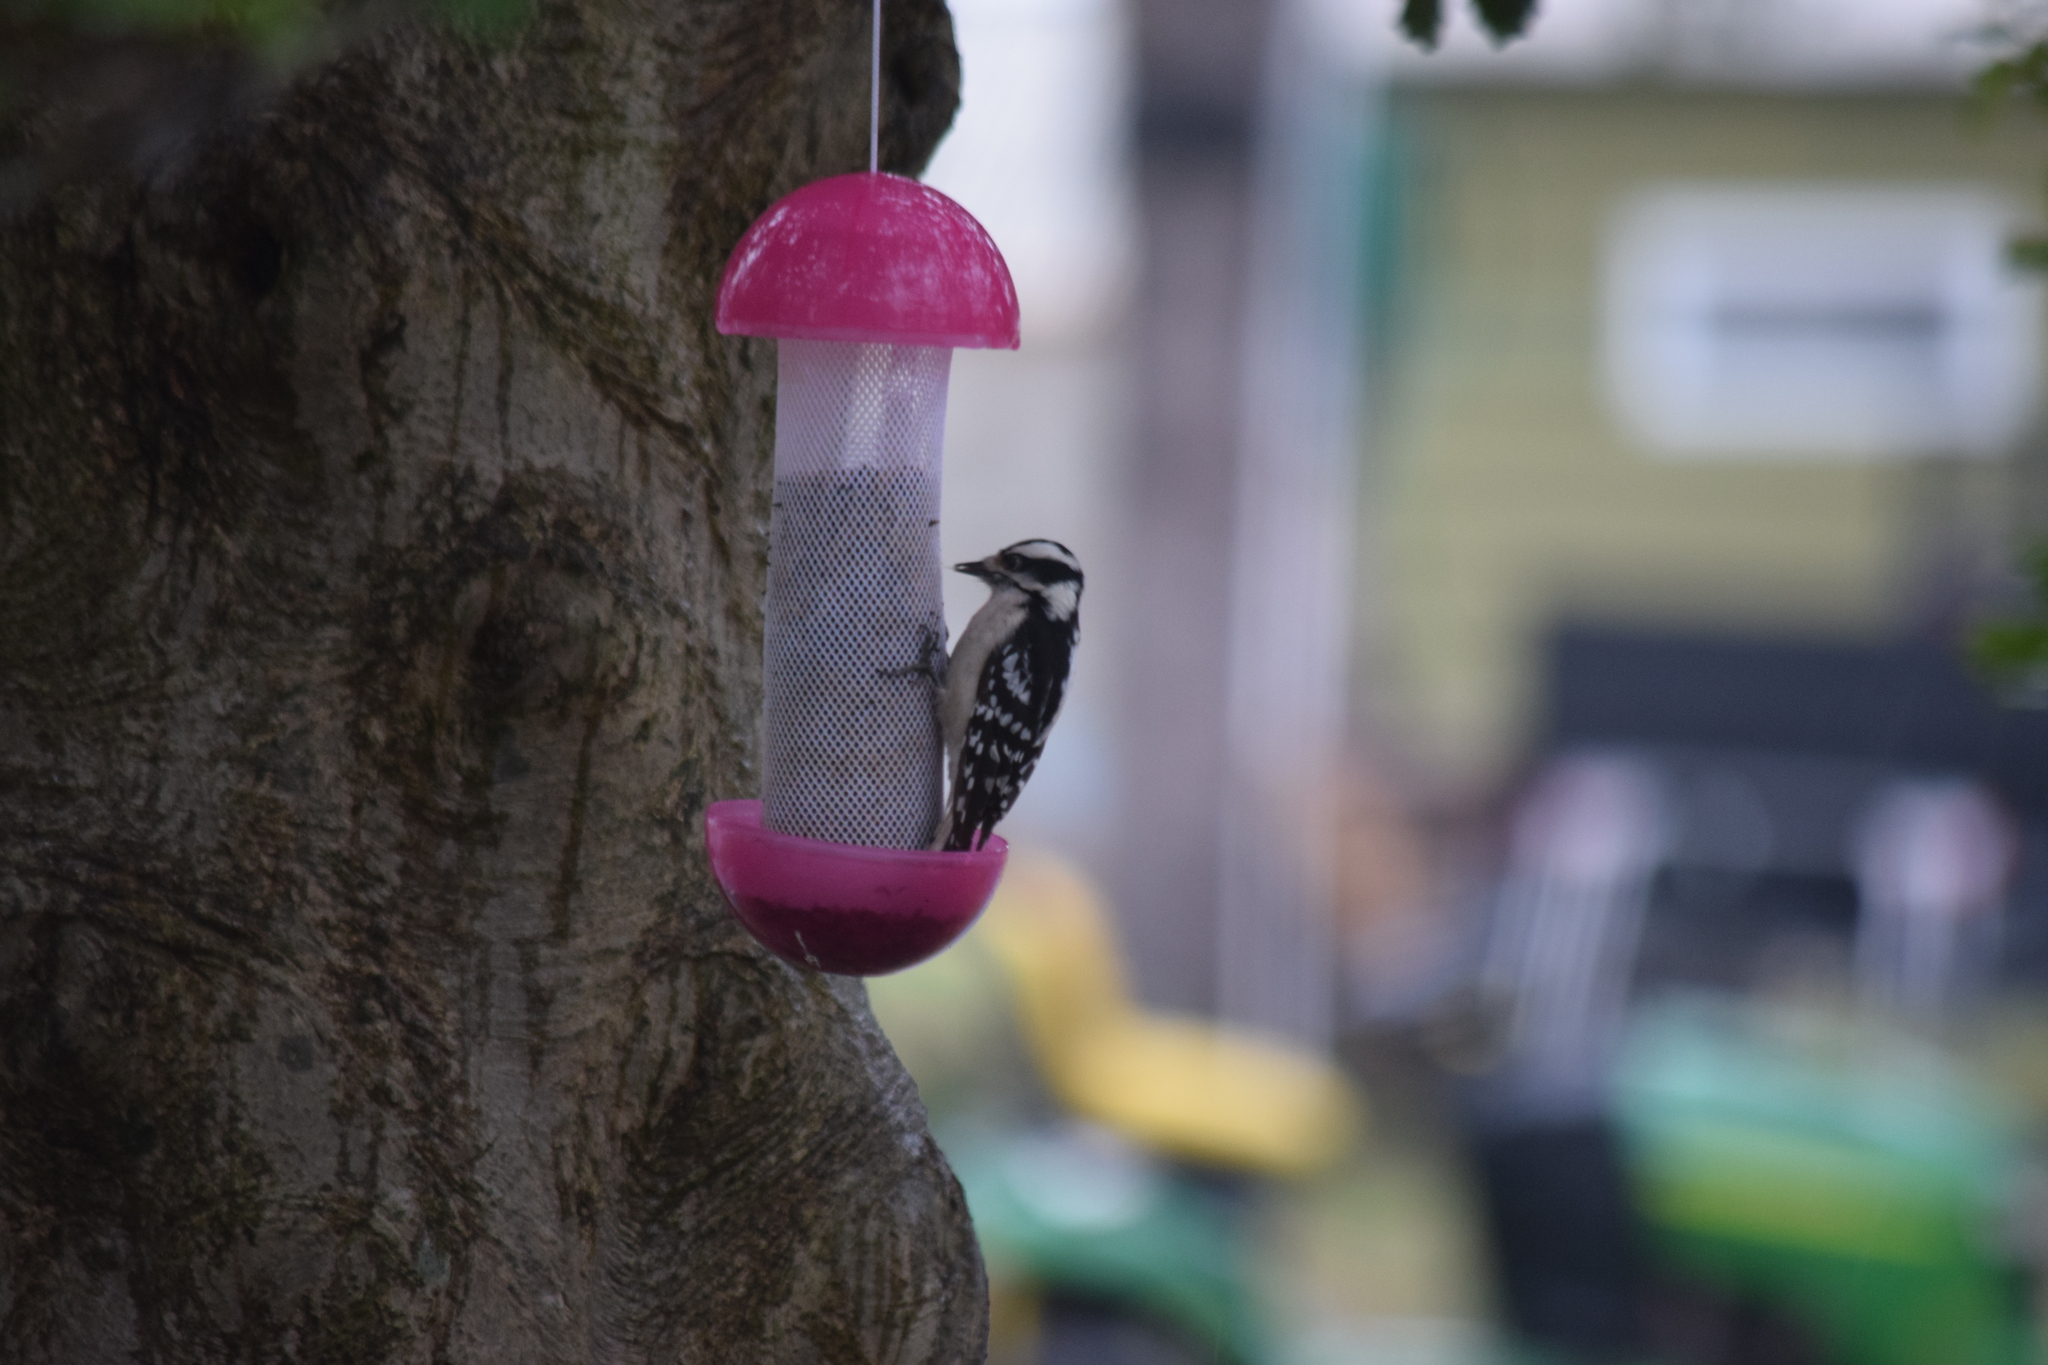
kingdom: Animalia
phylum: Chordata
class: Aves
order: Piciformes
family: Picidae
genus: Dryobates
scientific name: Dryobates pubescens
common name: Downy woodpecker
